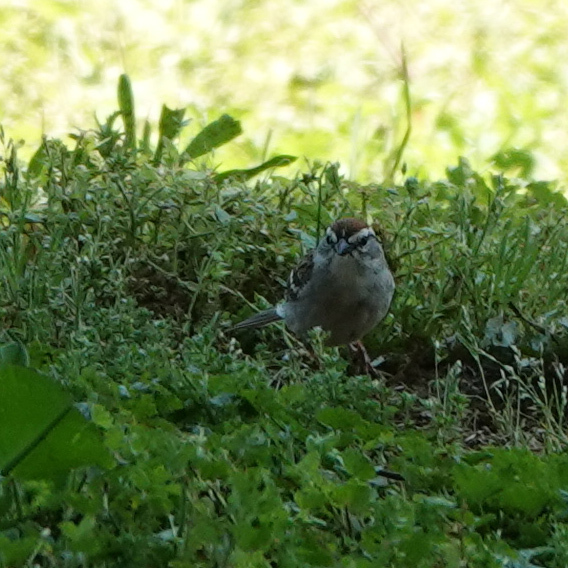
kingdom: Animalia
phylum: Chordata
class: Aves
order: Passeriformes
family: Passerellidae
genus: Spizella
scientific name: Spizella passerina
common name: Chipping sparrow
